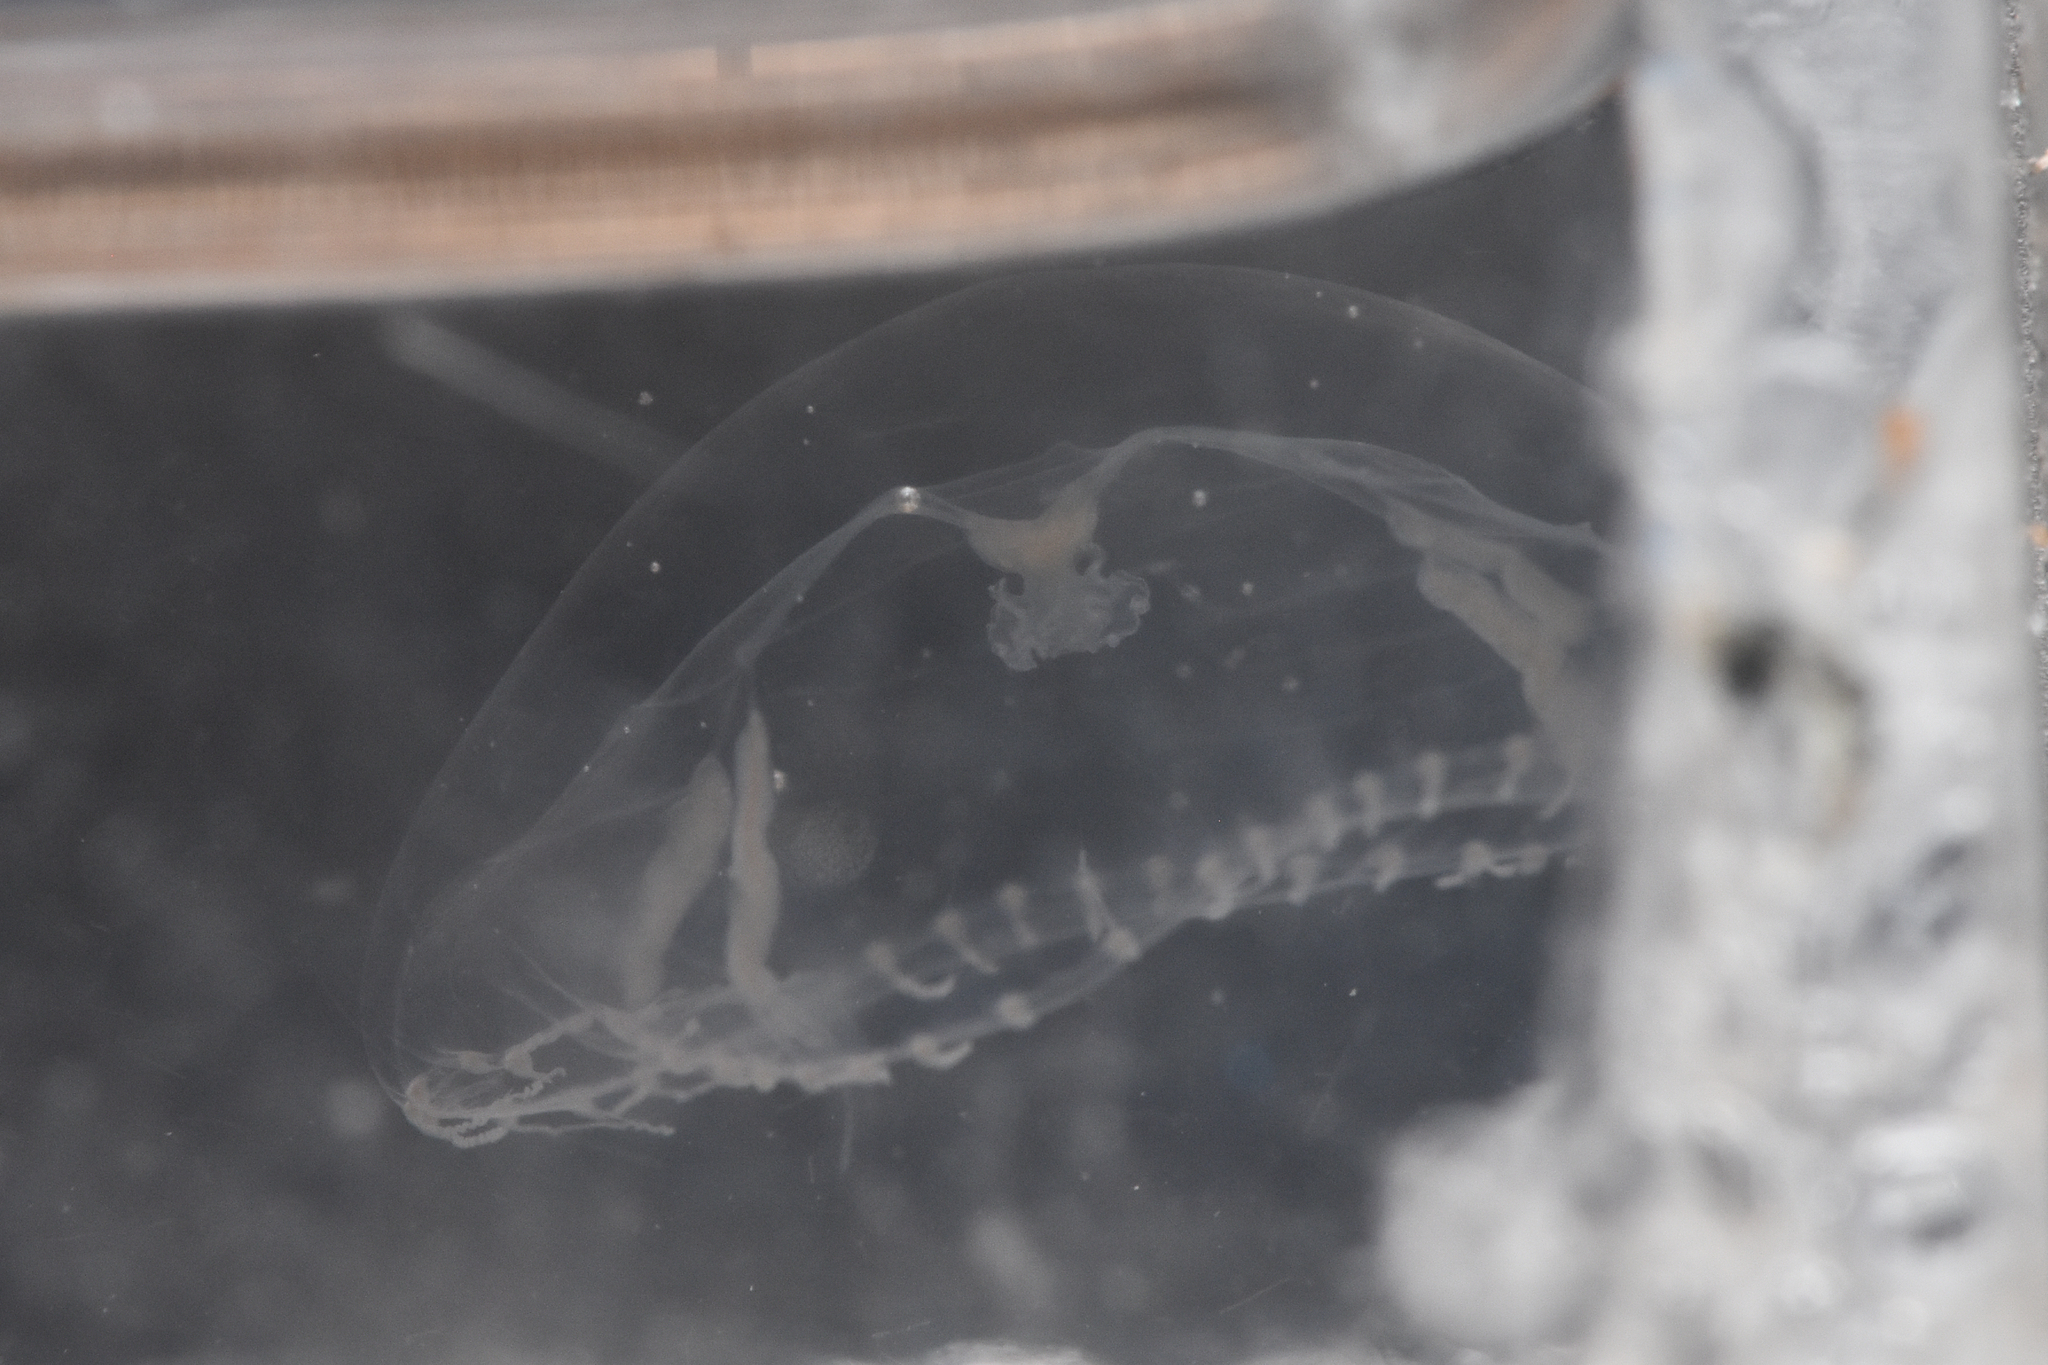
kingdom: Animalia
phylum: Cnidaria
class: Hydrozoa
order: Leptothecata
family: Campanulariidae
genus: Clytia
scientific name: Clytia gregaria
